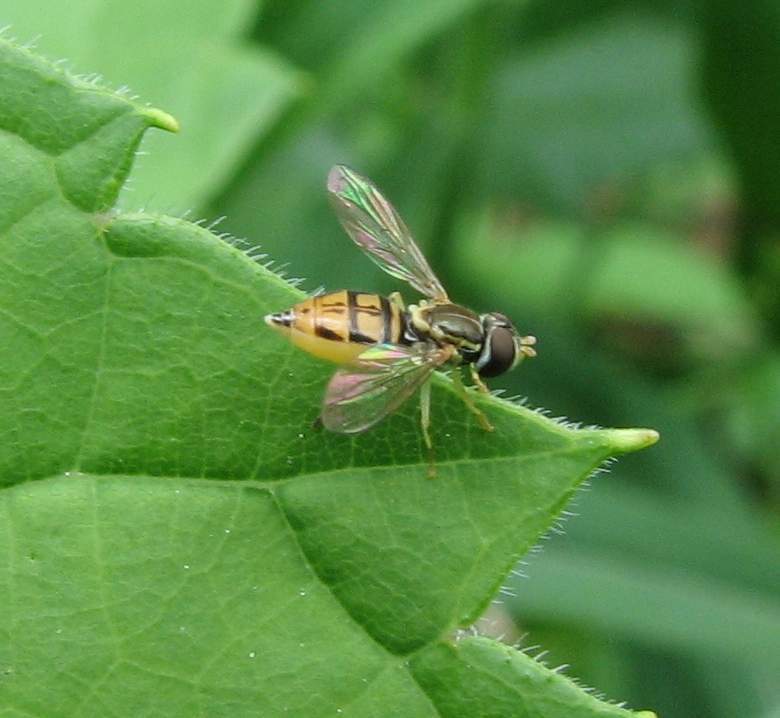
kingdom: Animalia
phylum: Arthropoda
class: Insecta
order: Diptera
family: Syrphidae
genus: Toxomerus
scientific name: Toxomerus marginatus
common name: Syrphid fly
